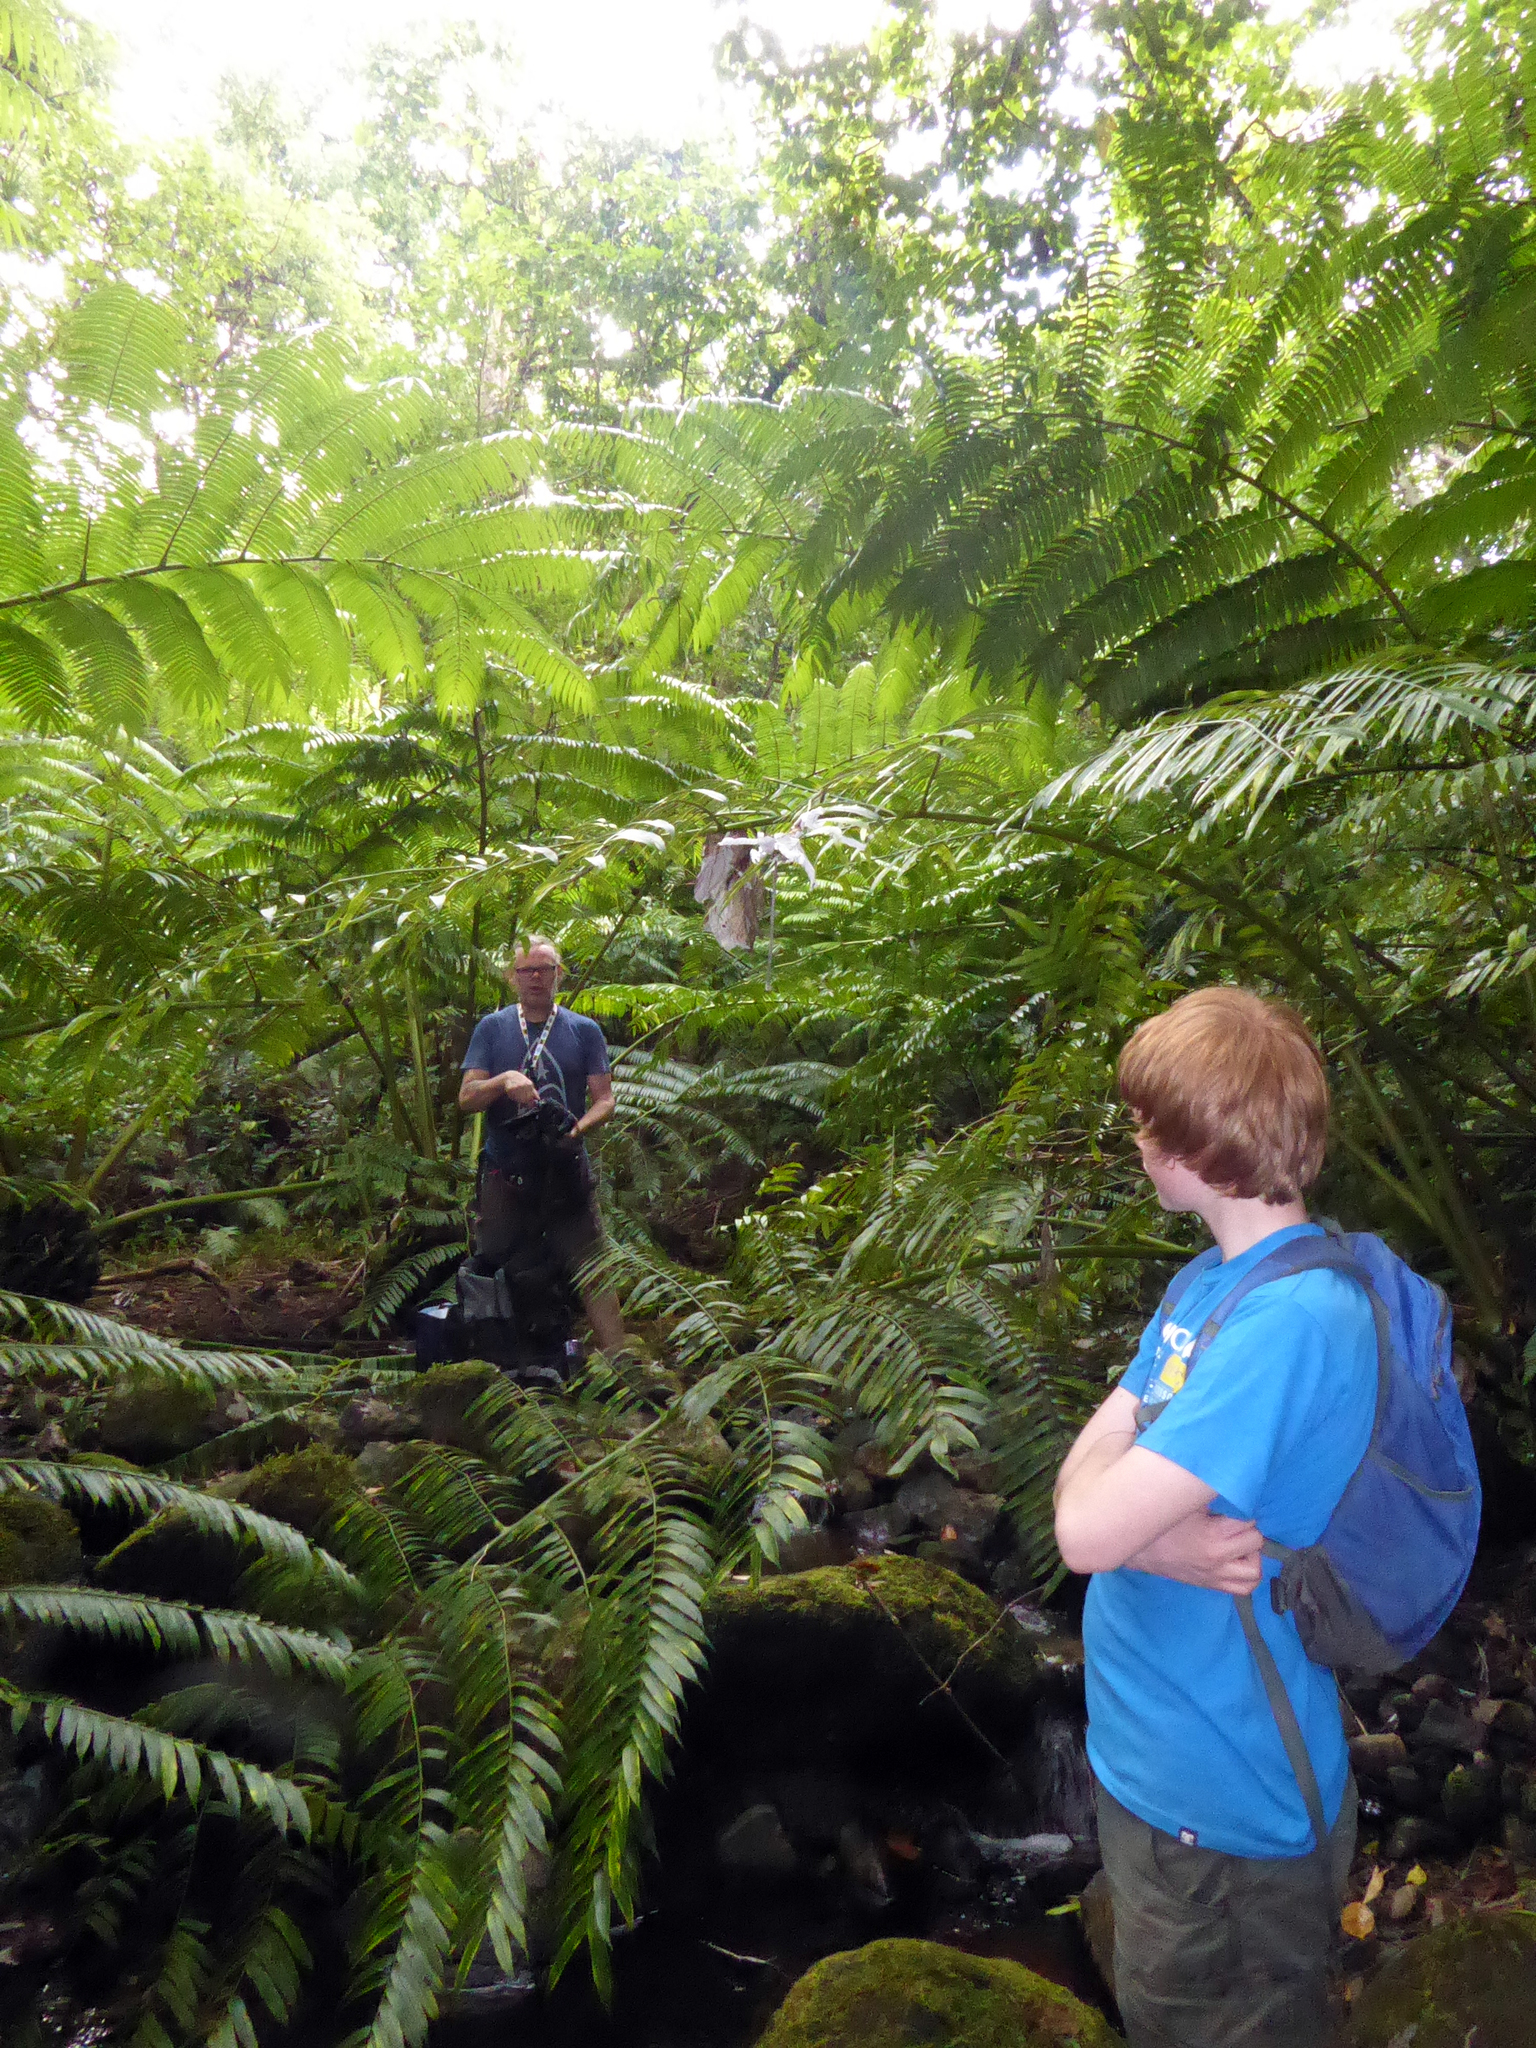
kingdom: Plantae
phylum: Tracheophyta
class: Polypodiopsida
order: Marattiales
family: Marattiaceae
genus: Angiopteris
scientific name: Angiopteris evecta
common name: Mule's-foot fern
